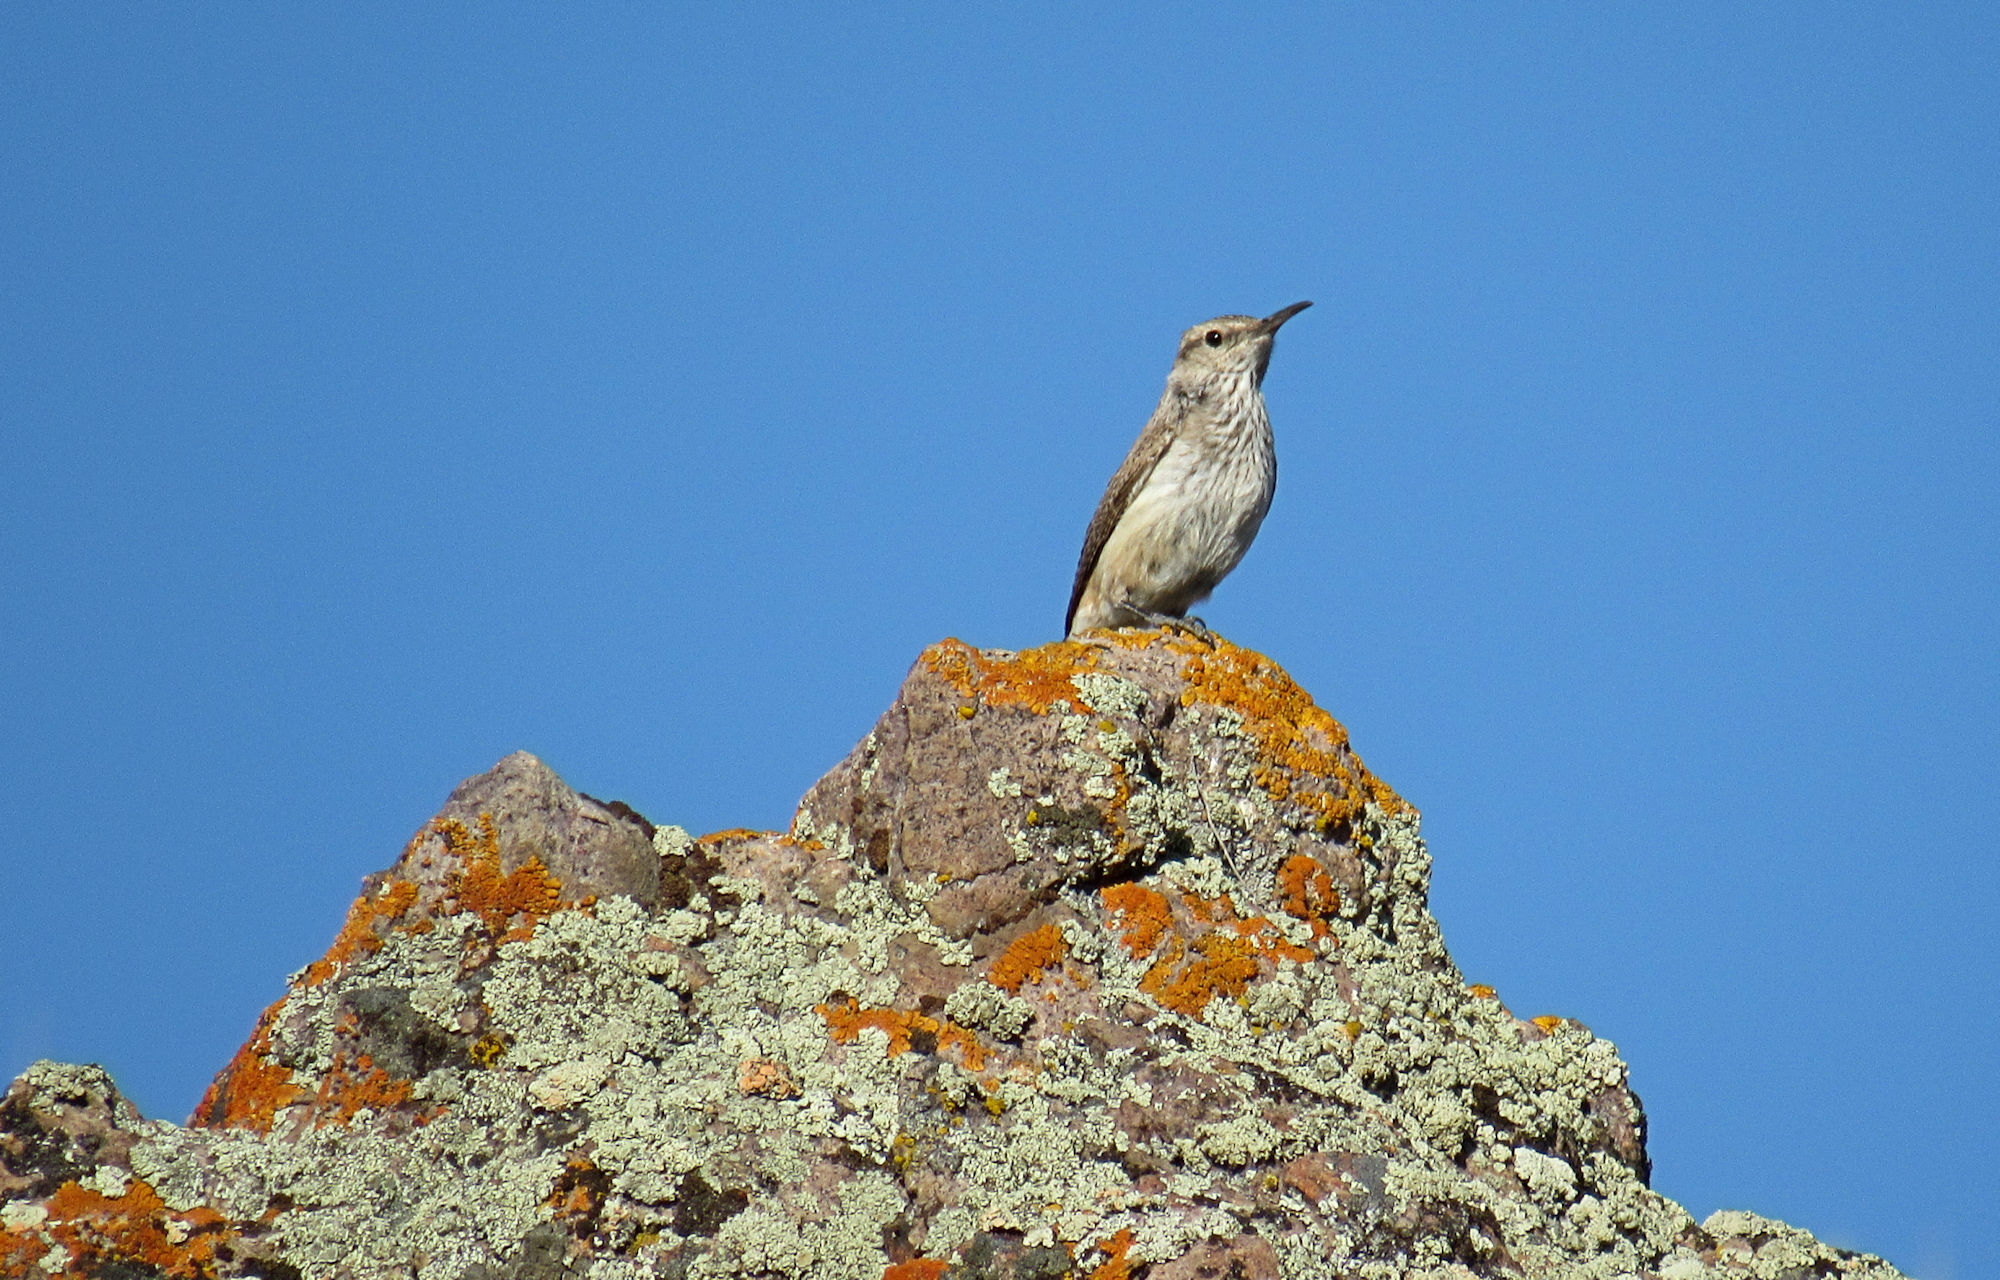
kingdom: Animalia
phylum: Chordata
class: Aves
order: Passeriformes
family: Troglodytidae
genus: Salpinctes
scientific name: Salpinctes obsoletus
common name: Rock wren
